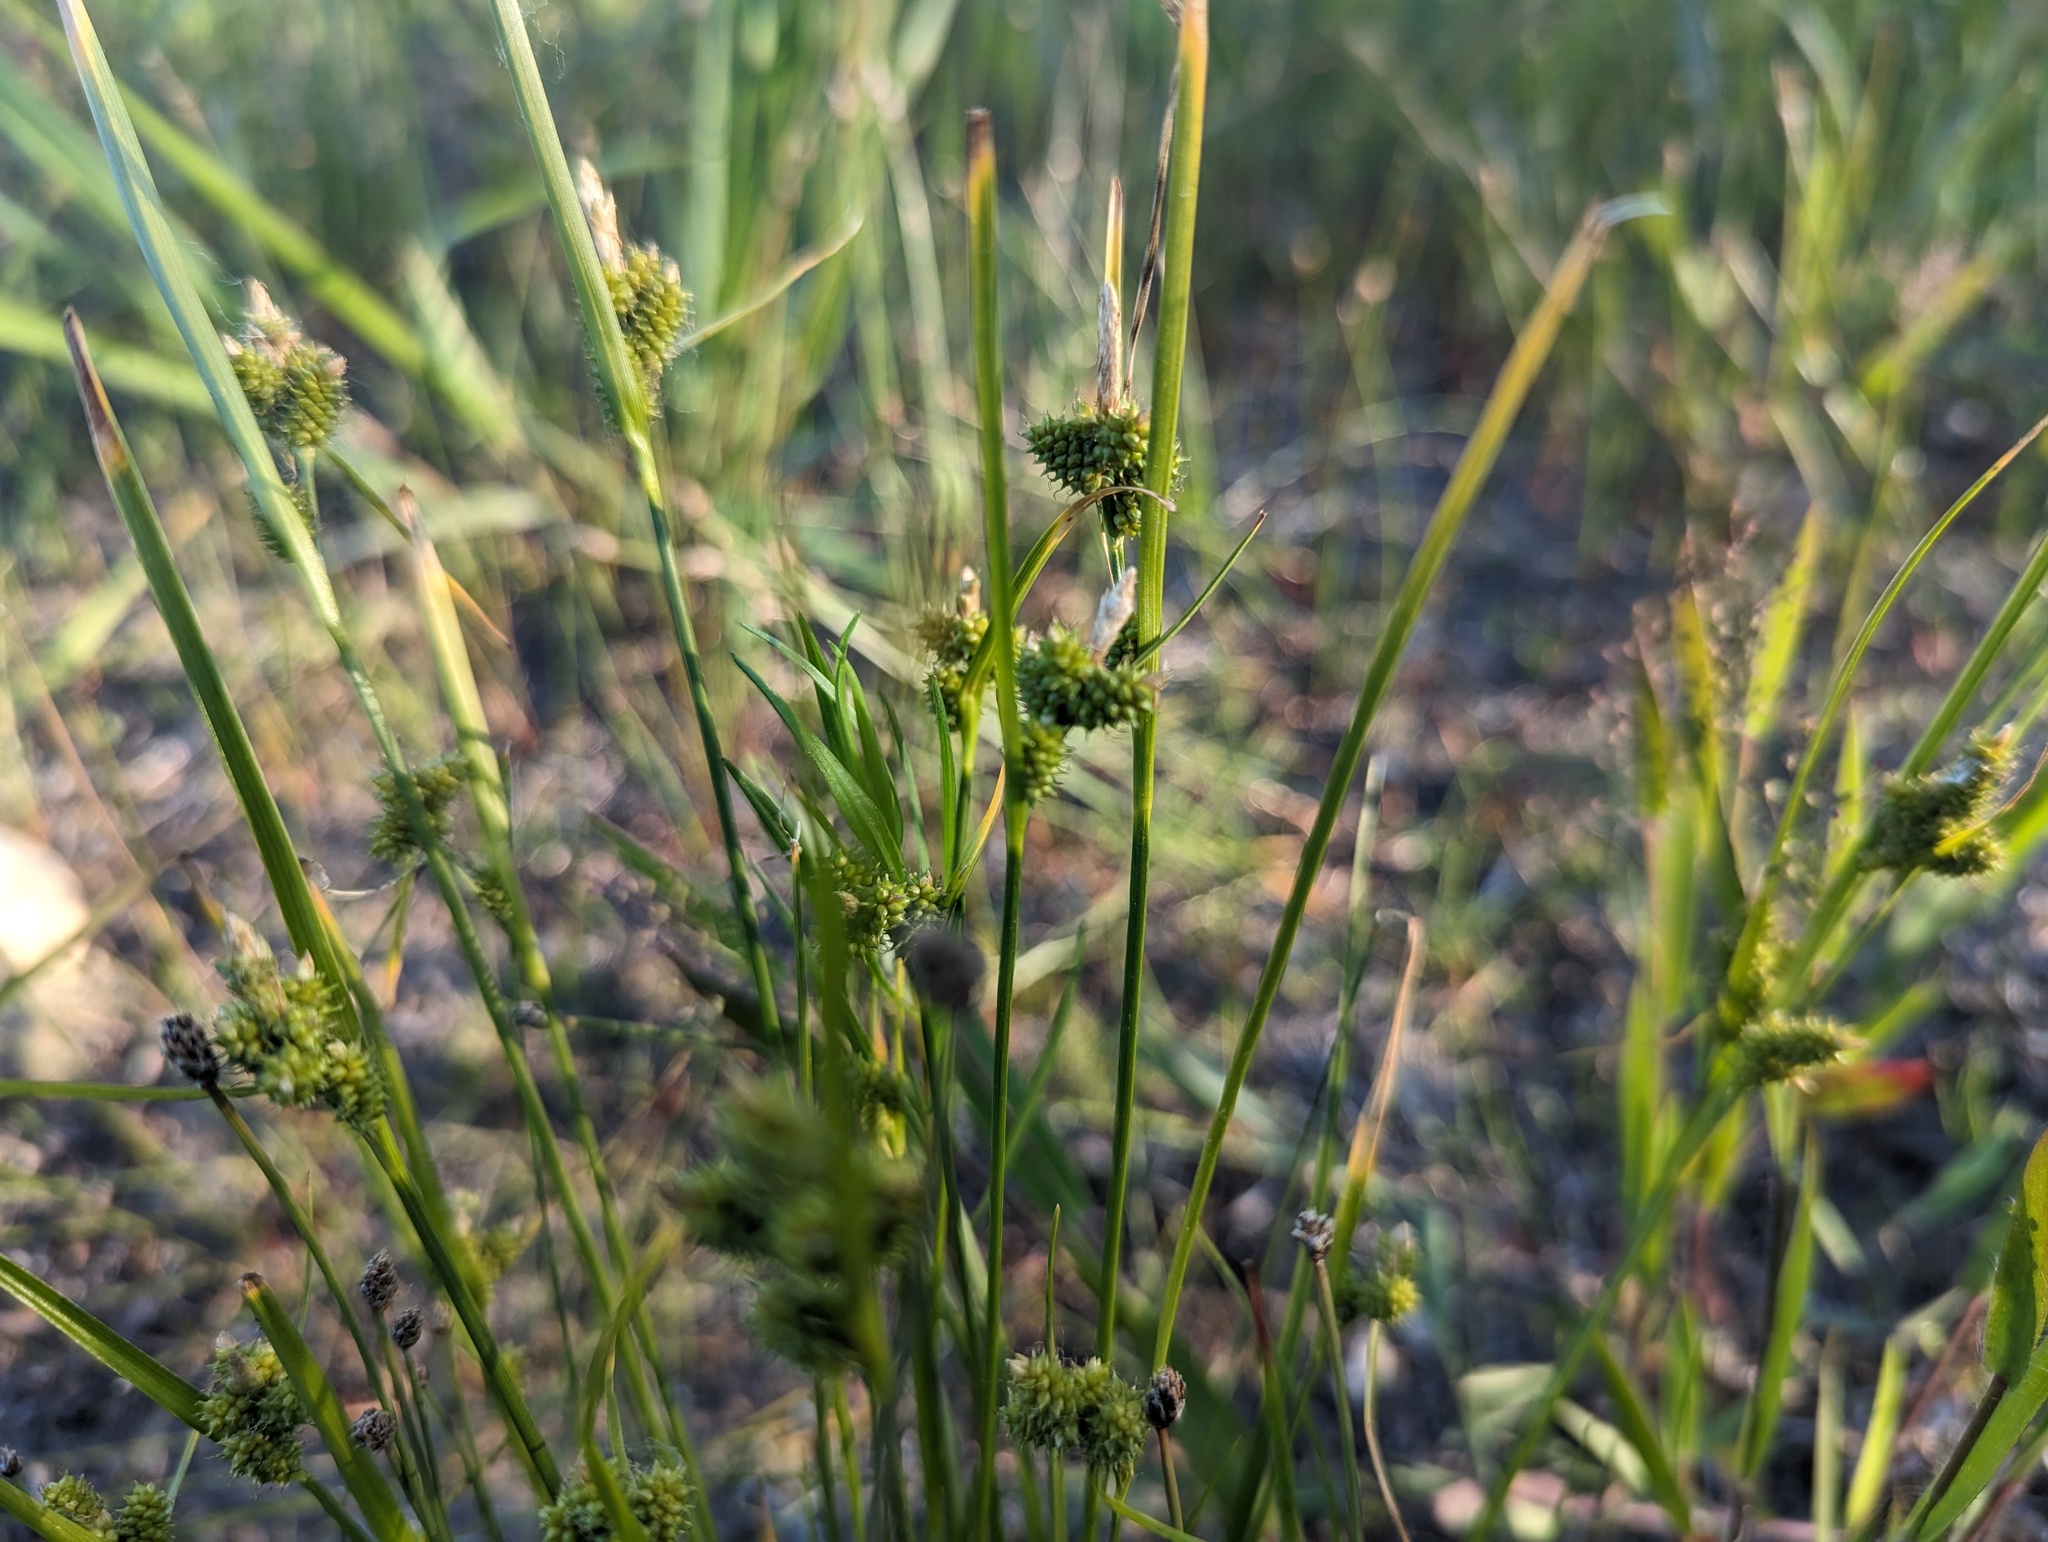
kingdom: Plantae
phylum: Tracheophyta
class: Liliopsida
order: Poales
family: Cyperaceae
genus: Carex
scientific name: Carex
